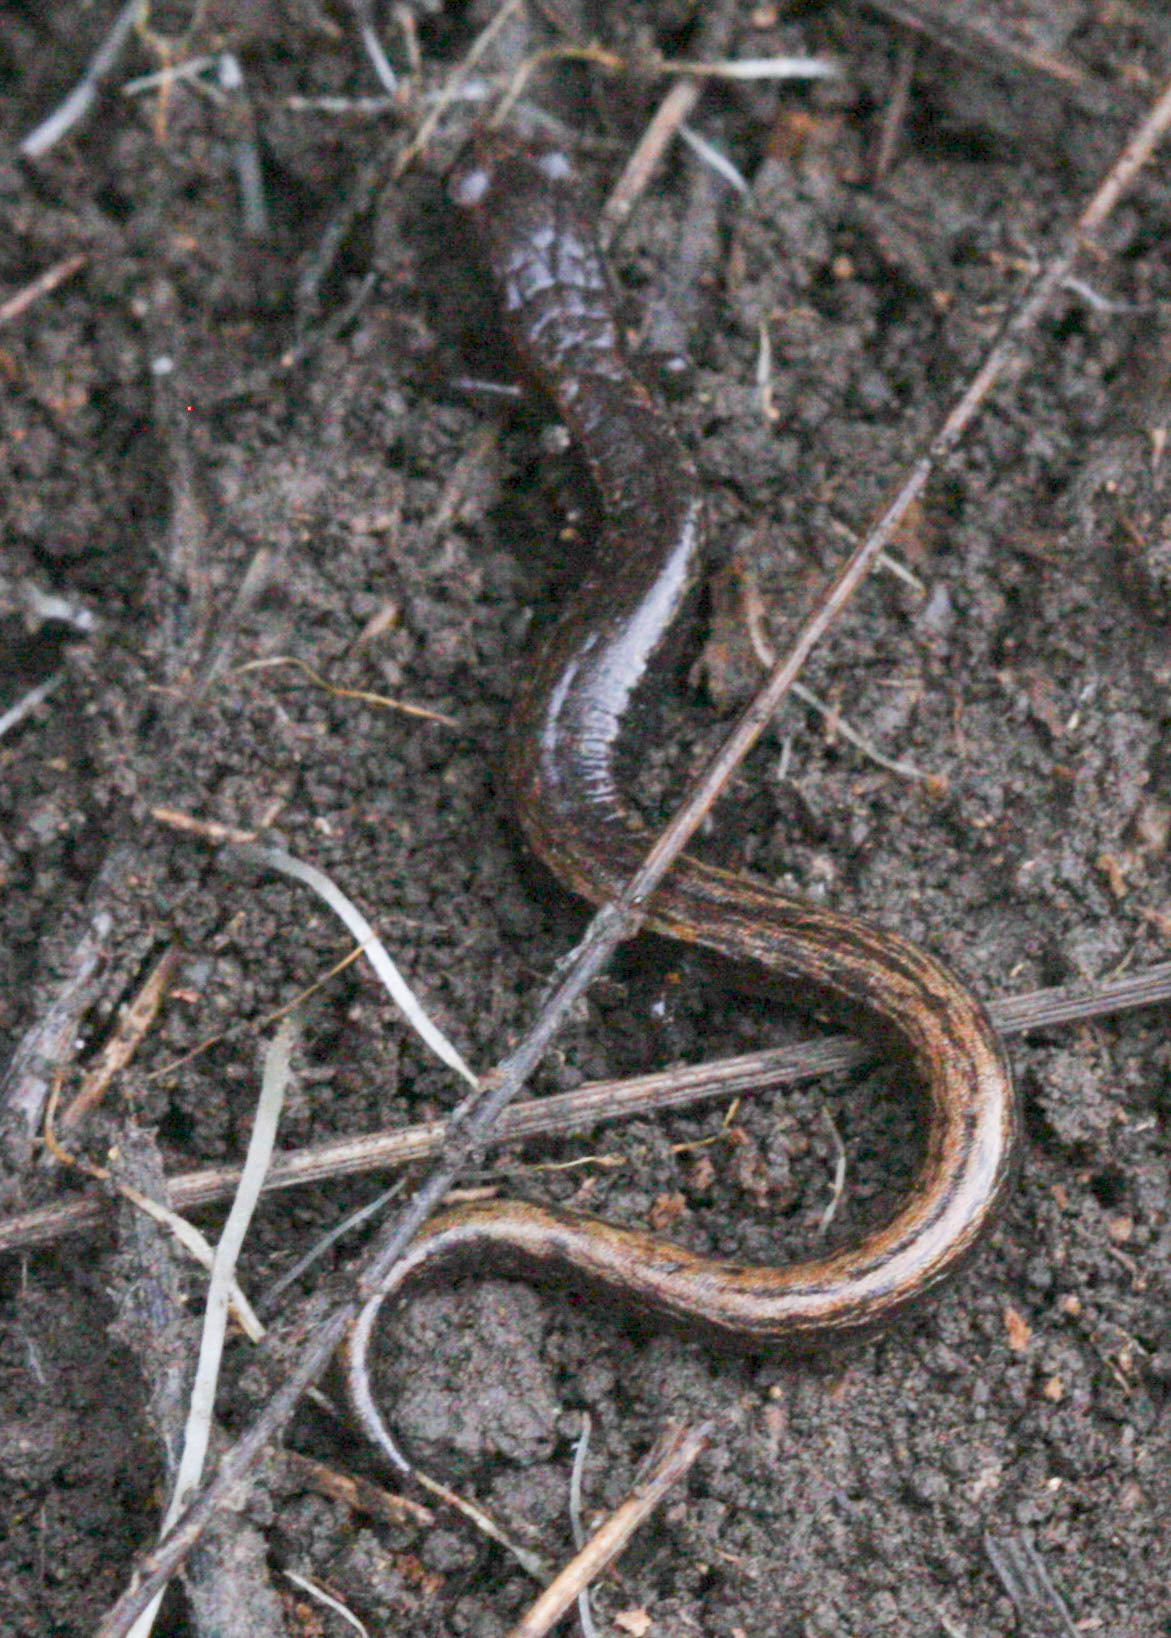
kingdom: Animalia
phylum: Chordata
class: Amphibia
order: Caudata
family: Plethodontidae
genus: Batrachoseps
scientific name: Batrachoseps attenuatus
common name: California slender salamander
